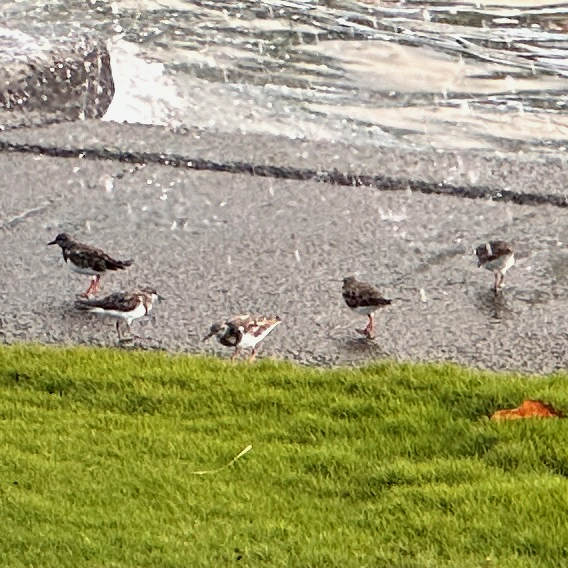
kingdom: Animalia
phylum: Chordata
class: Aves
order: Charadriiformes
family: Scolopacidae
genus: Arenaria
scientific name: Arenaria interpres
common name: Ruddy turnstone
